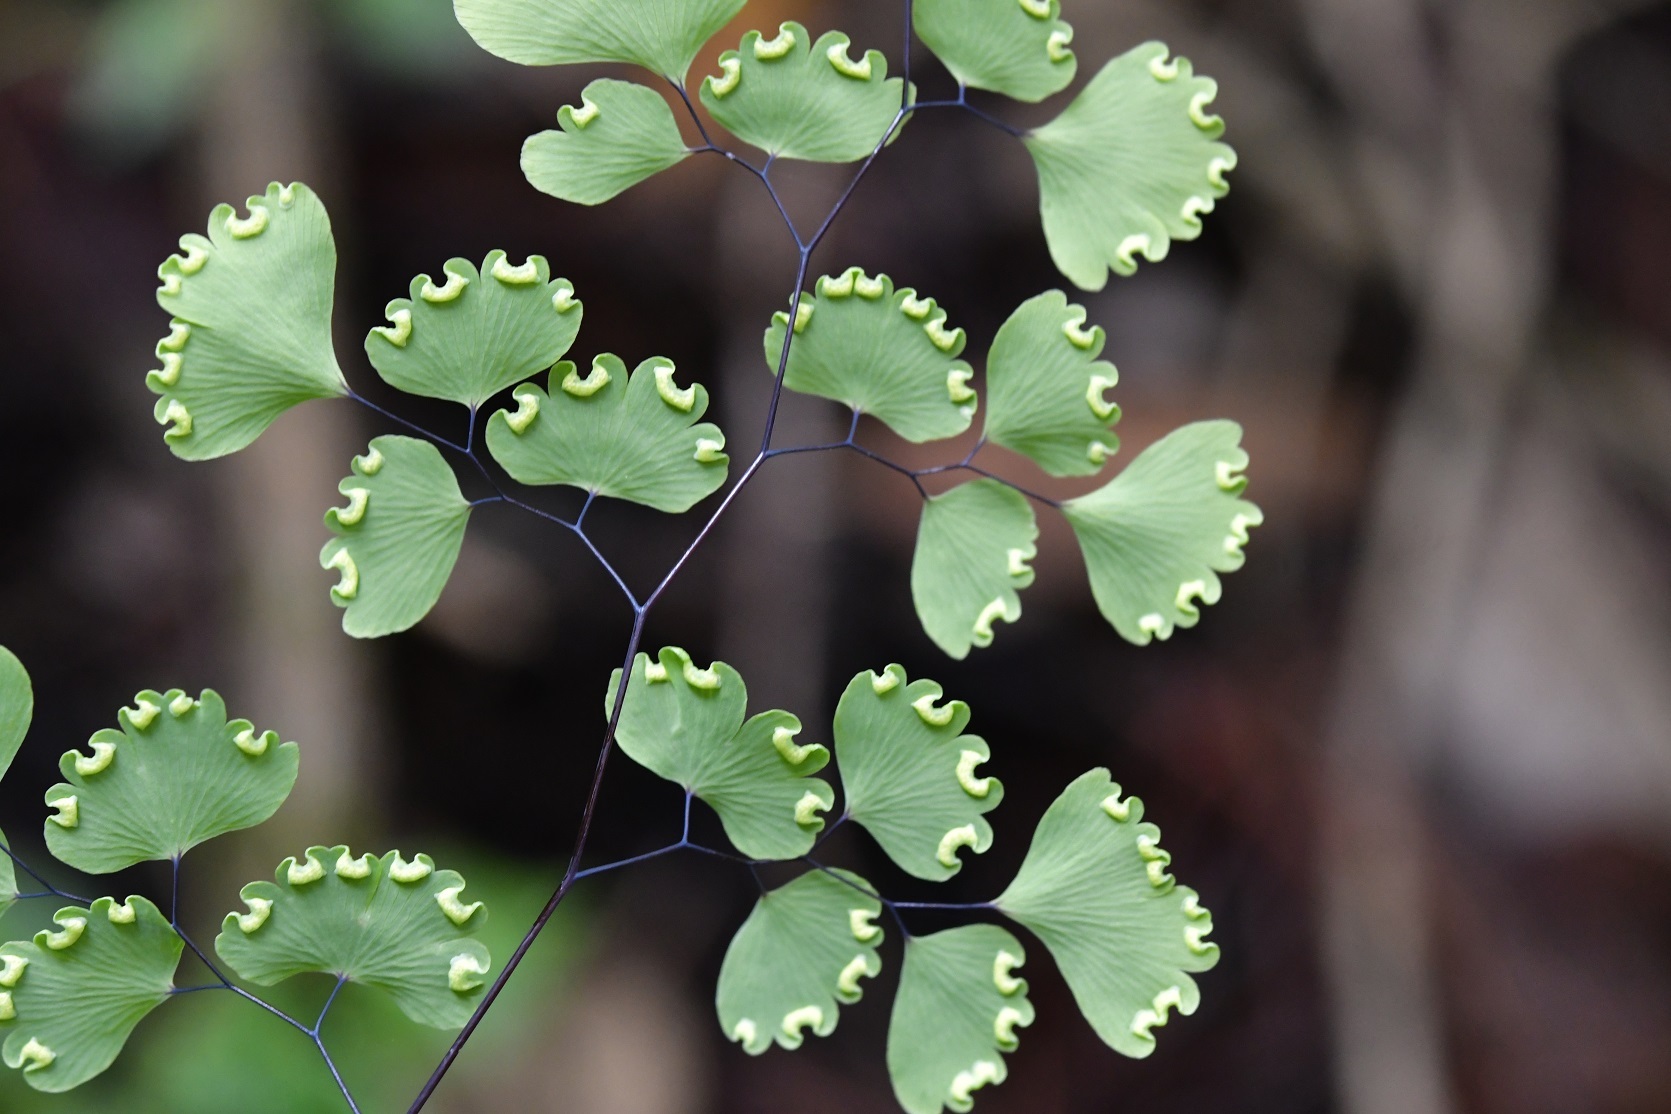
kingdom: Plantae
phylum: Tracheophyta
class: Polypodiopsida
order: Polypodiales
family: Pteridaceae
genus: Adiantum
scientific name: Adiantum poiretii
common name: Mexican maidenhair
